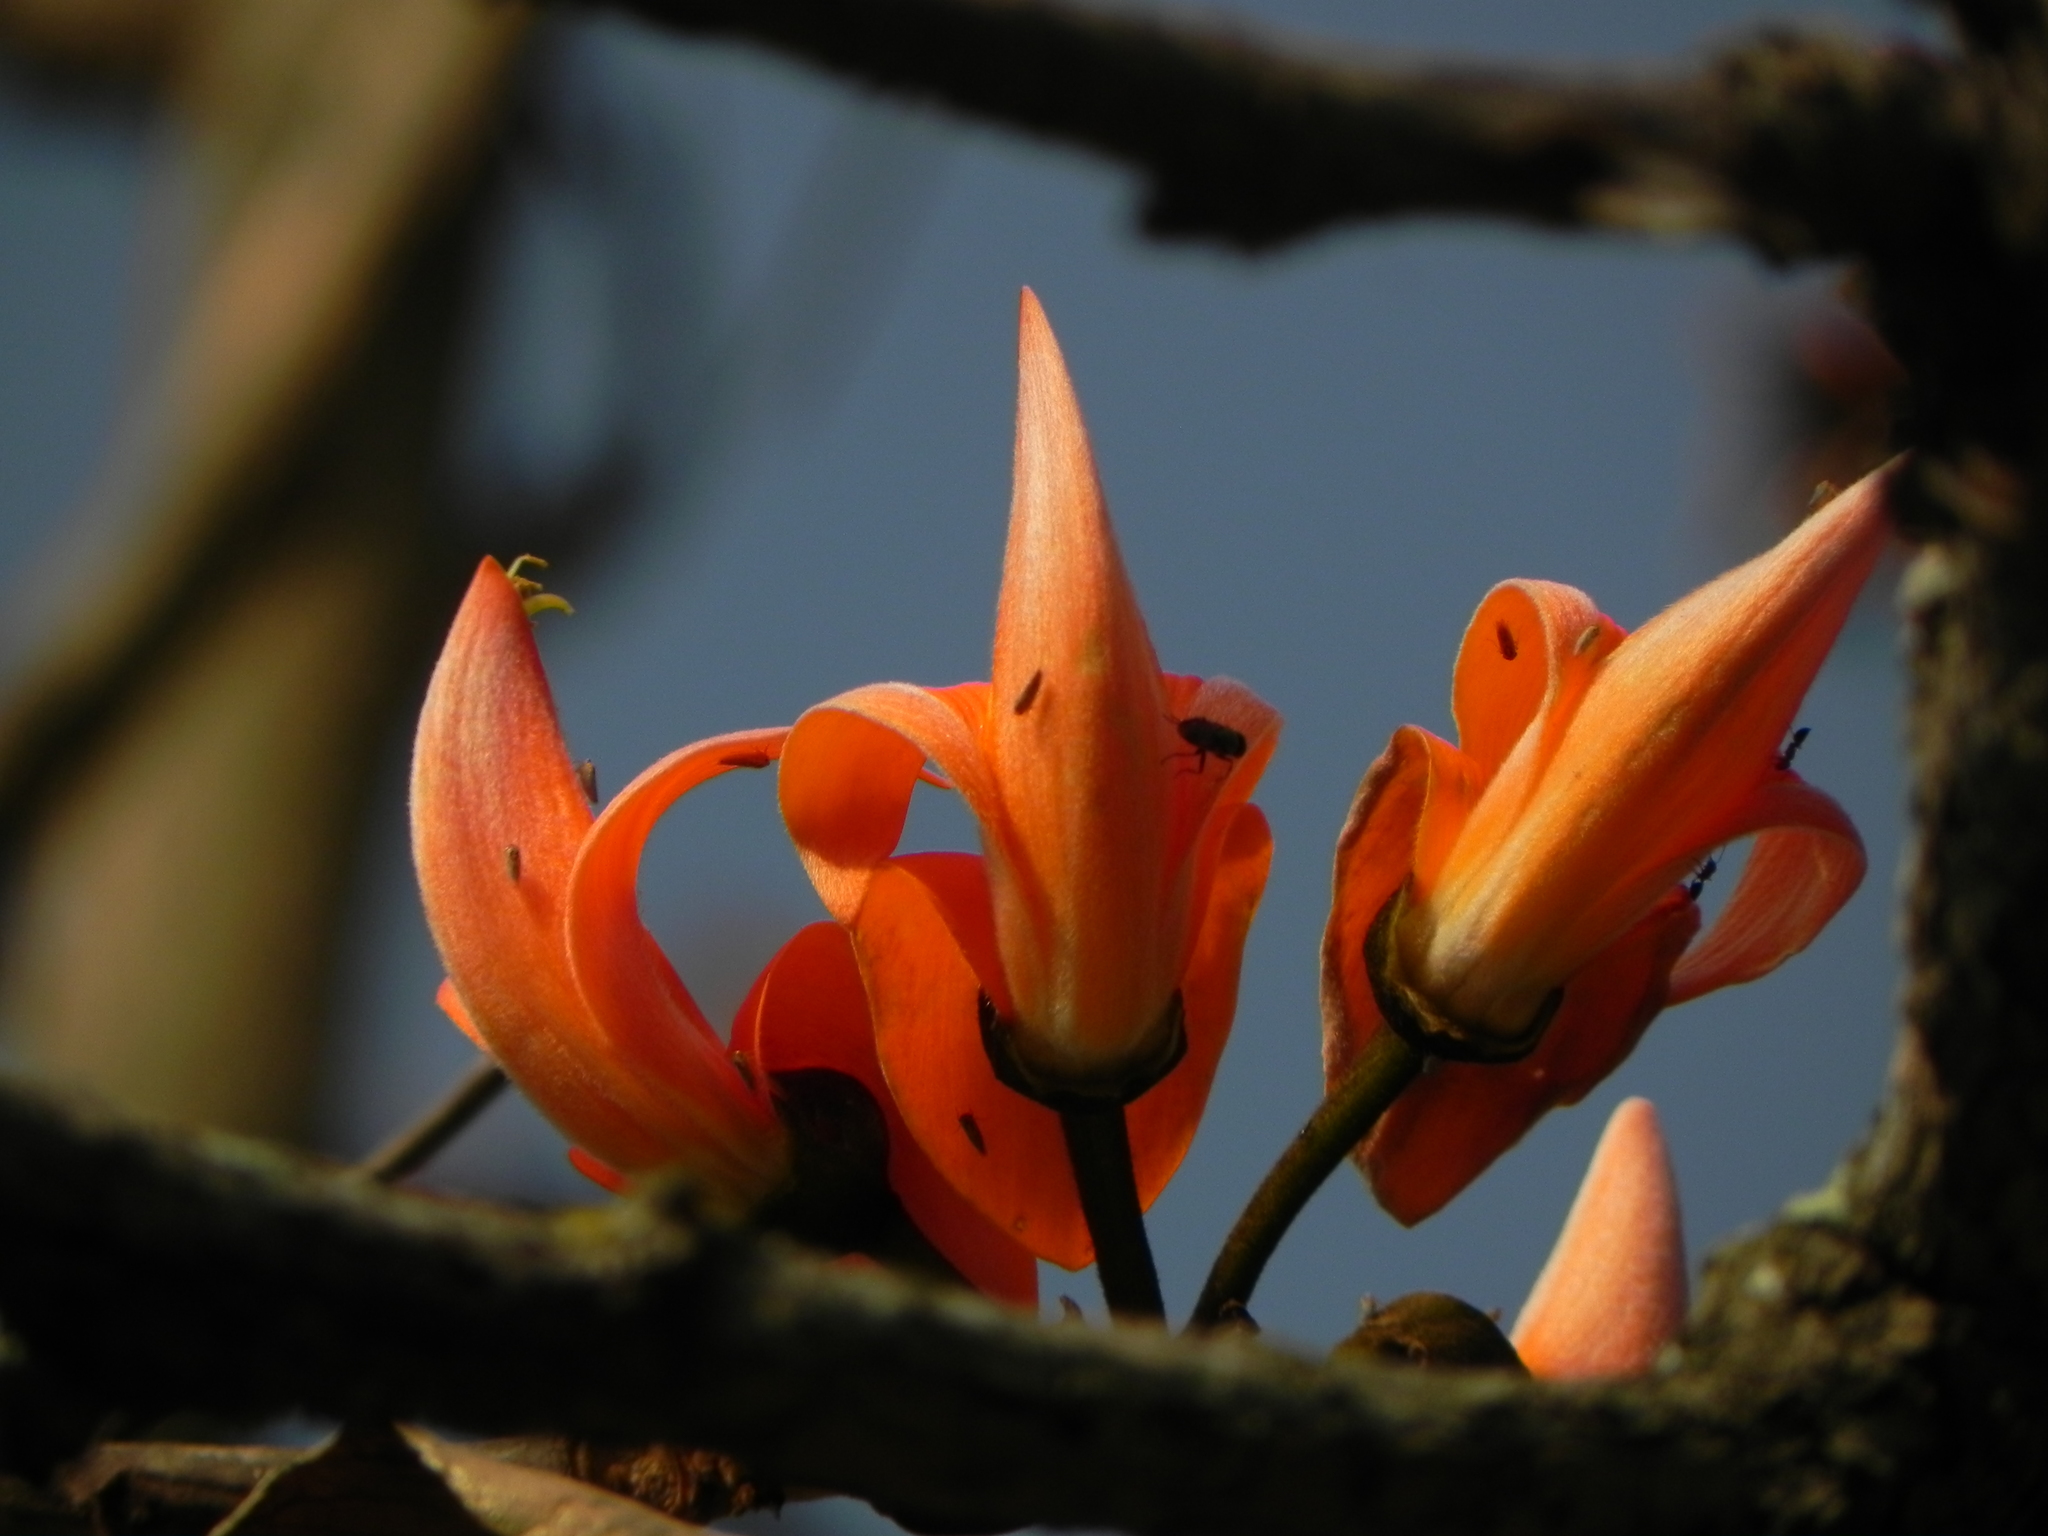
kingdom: Plantae
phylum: Tracheophyta
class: Magnoliopsida
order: Fabales
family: Fabaceae
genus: Butea
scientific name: Butea monosperma
